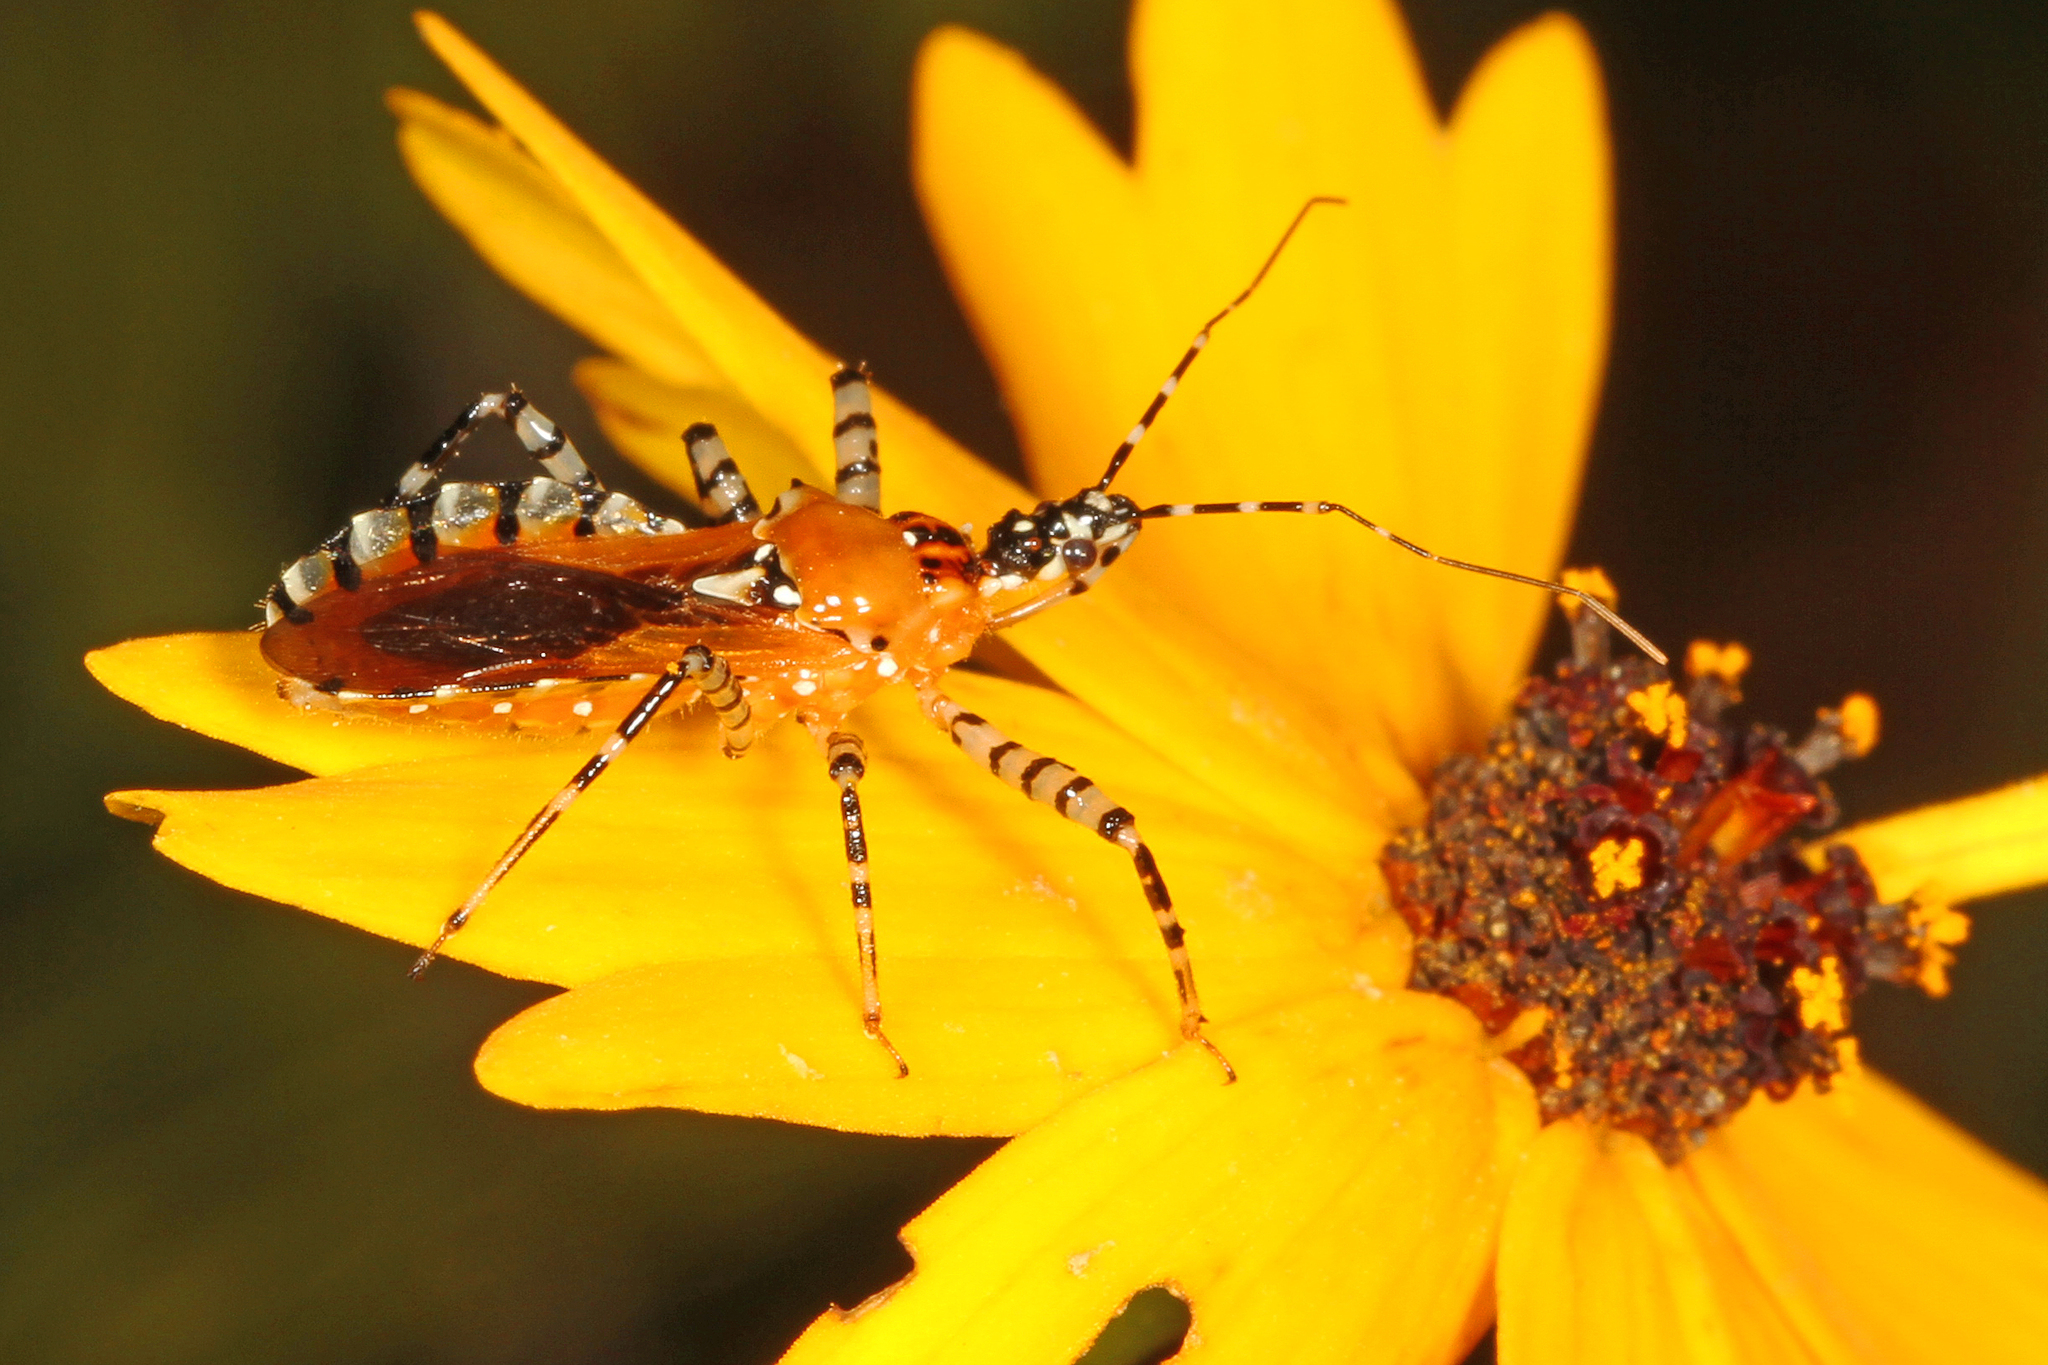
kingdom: Animalia
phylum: Arthropoda
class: Insecta
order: Hemiptera
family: Reduviidae
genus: Pselliopus
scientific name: Pselliopus cinctus
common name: Ringed assassin bug
